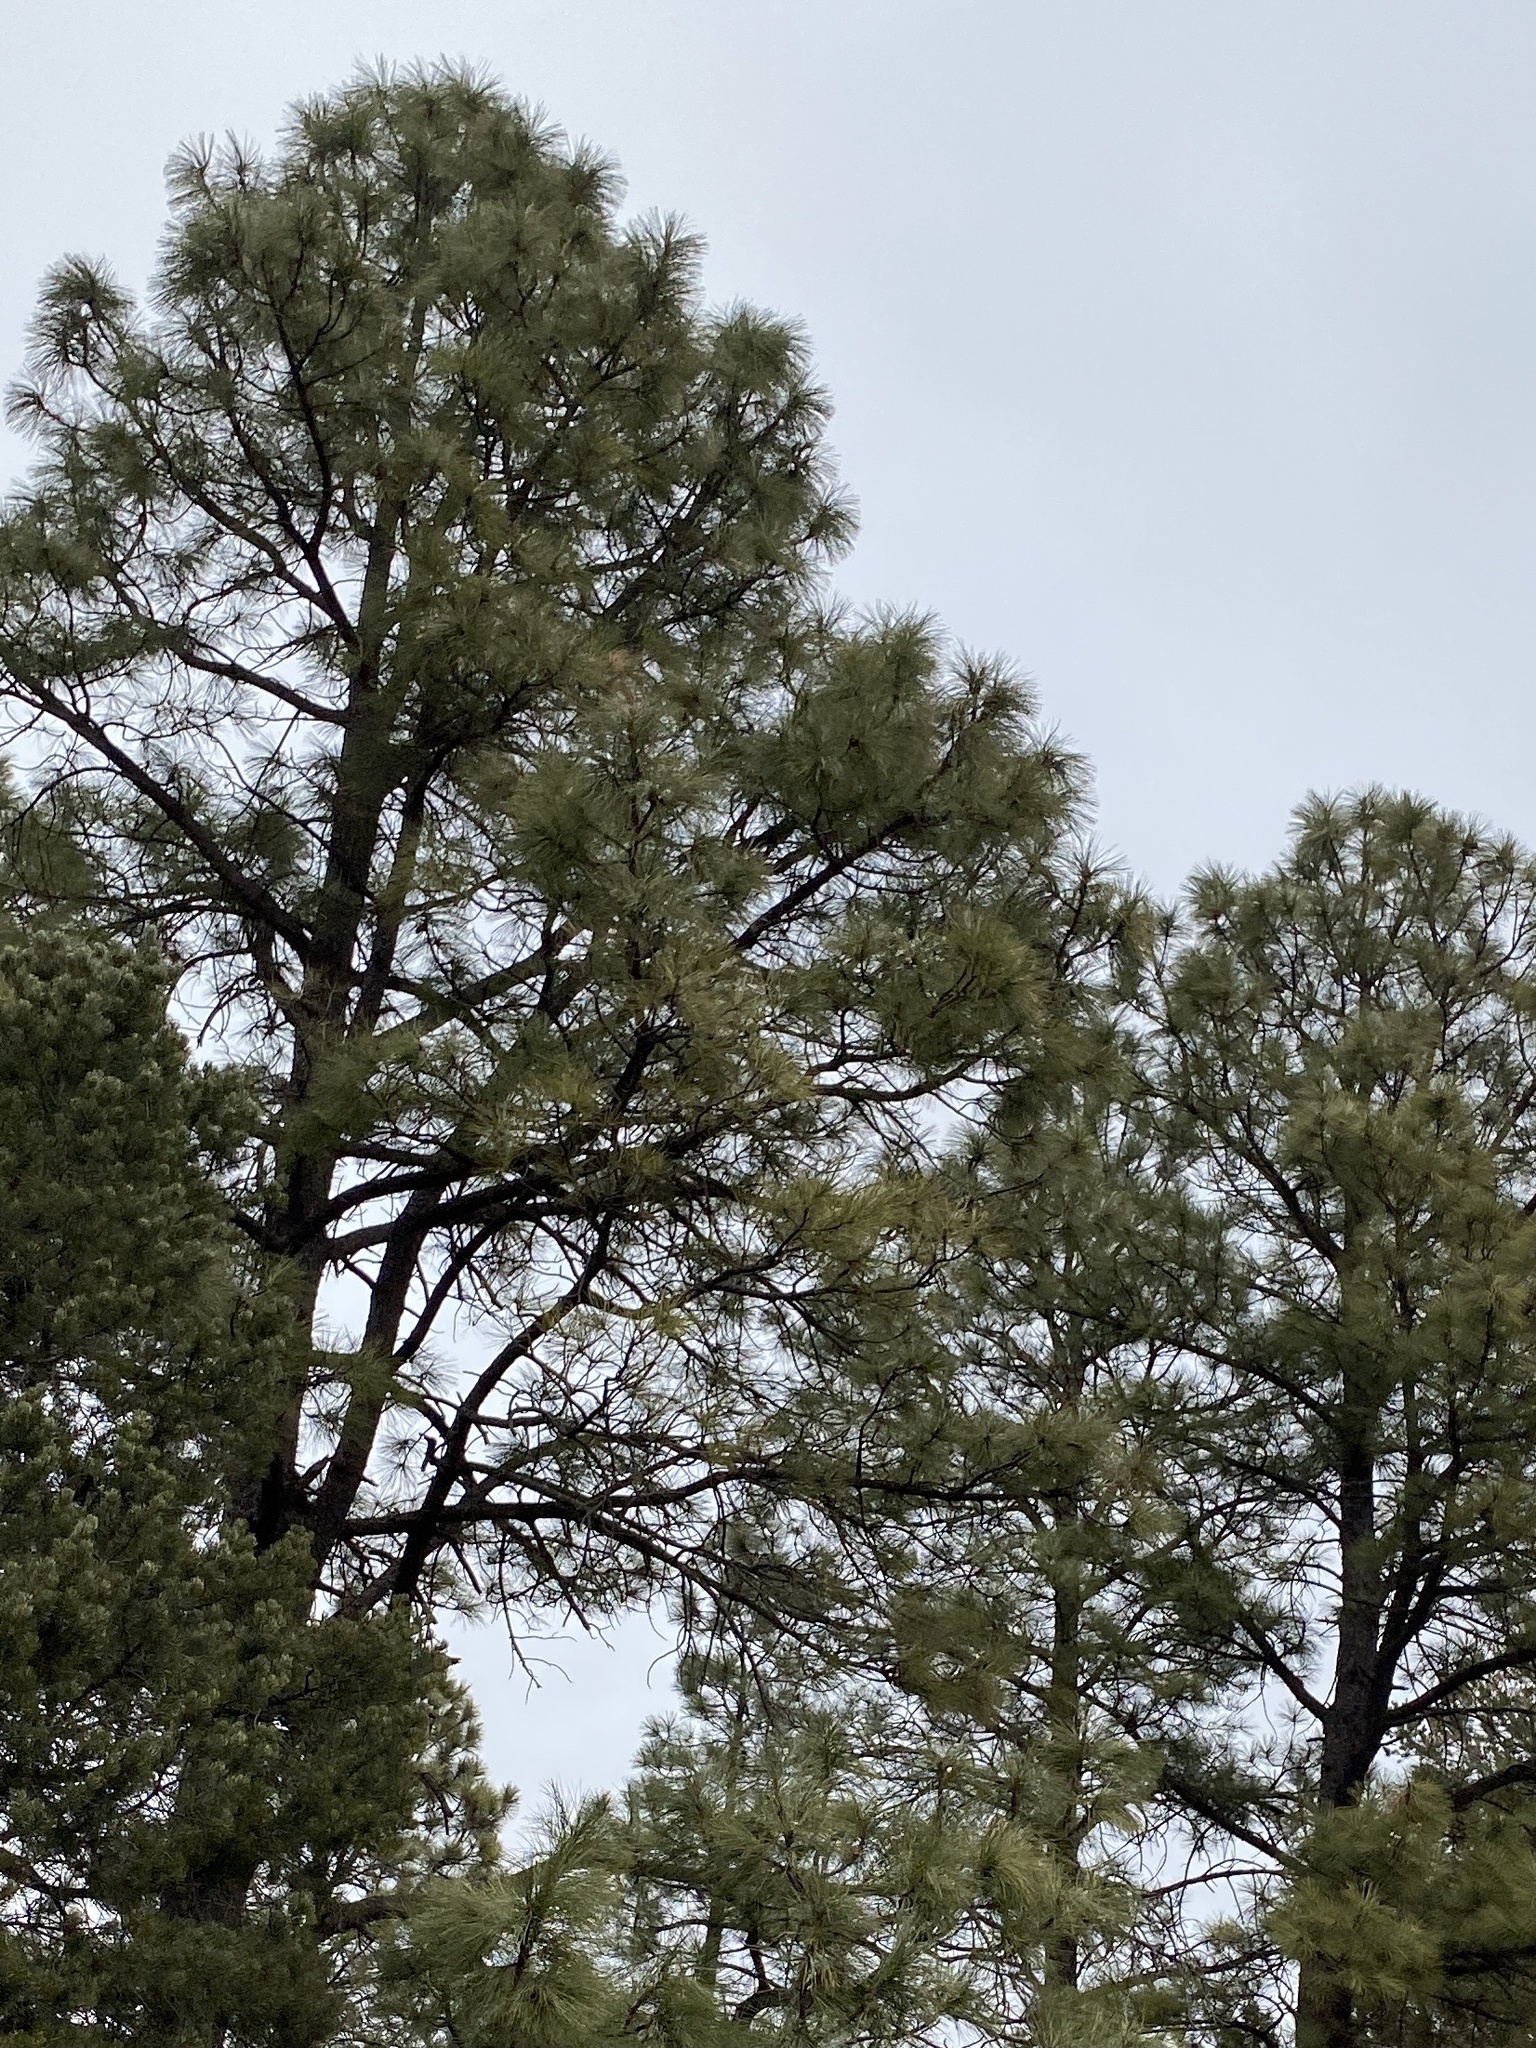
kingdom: Plantae
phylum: Tracheophyta
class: Pinopsida
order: Pinales
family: Pinaceae
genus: Pinus
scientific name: Pinus ponderosa
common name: Western yellow-pine
